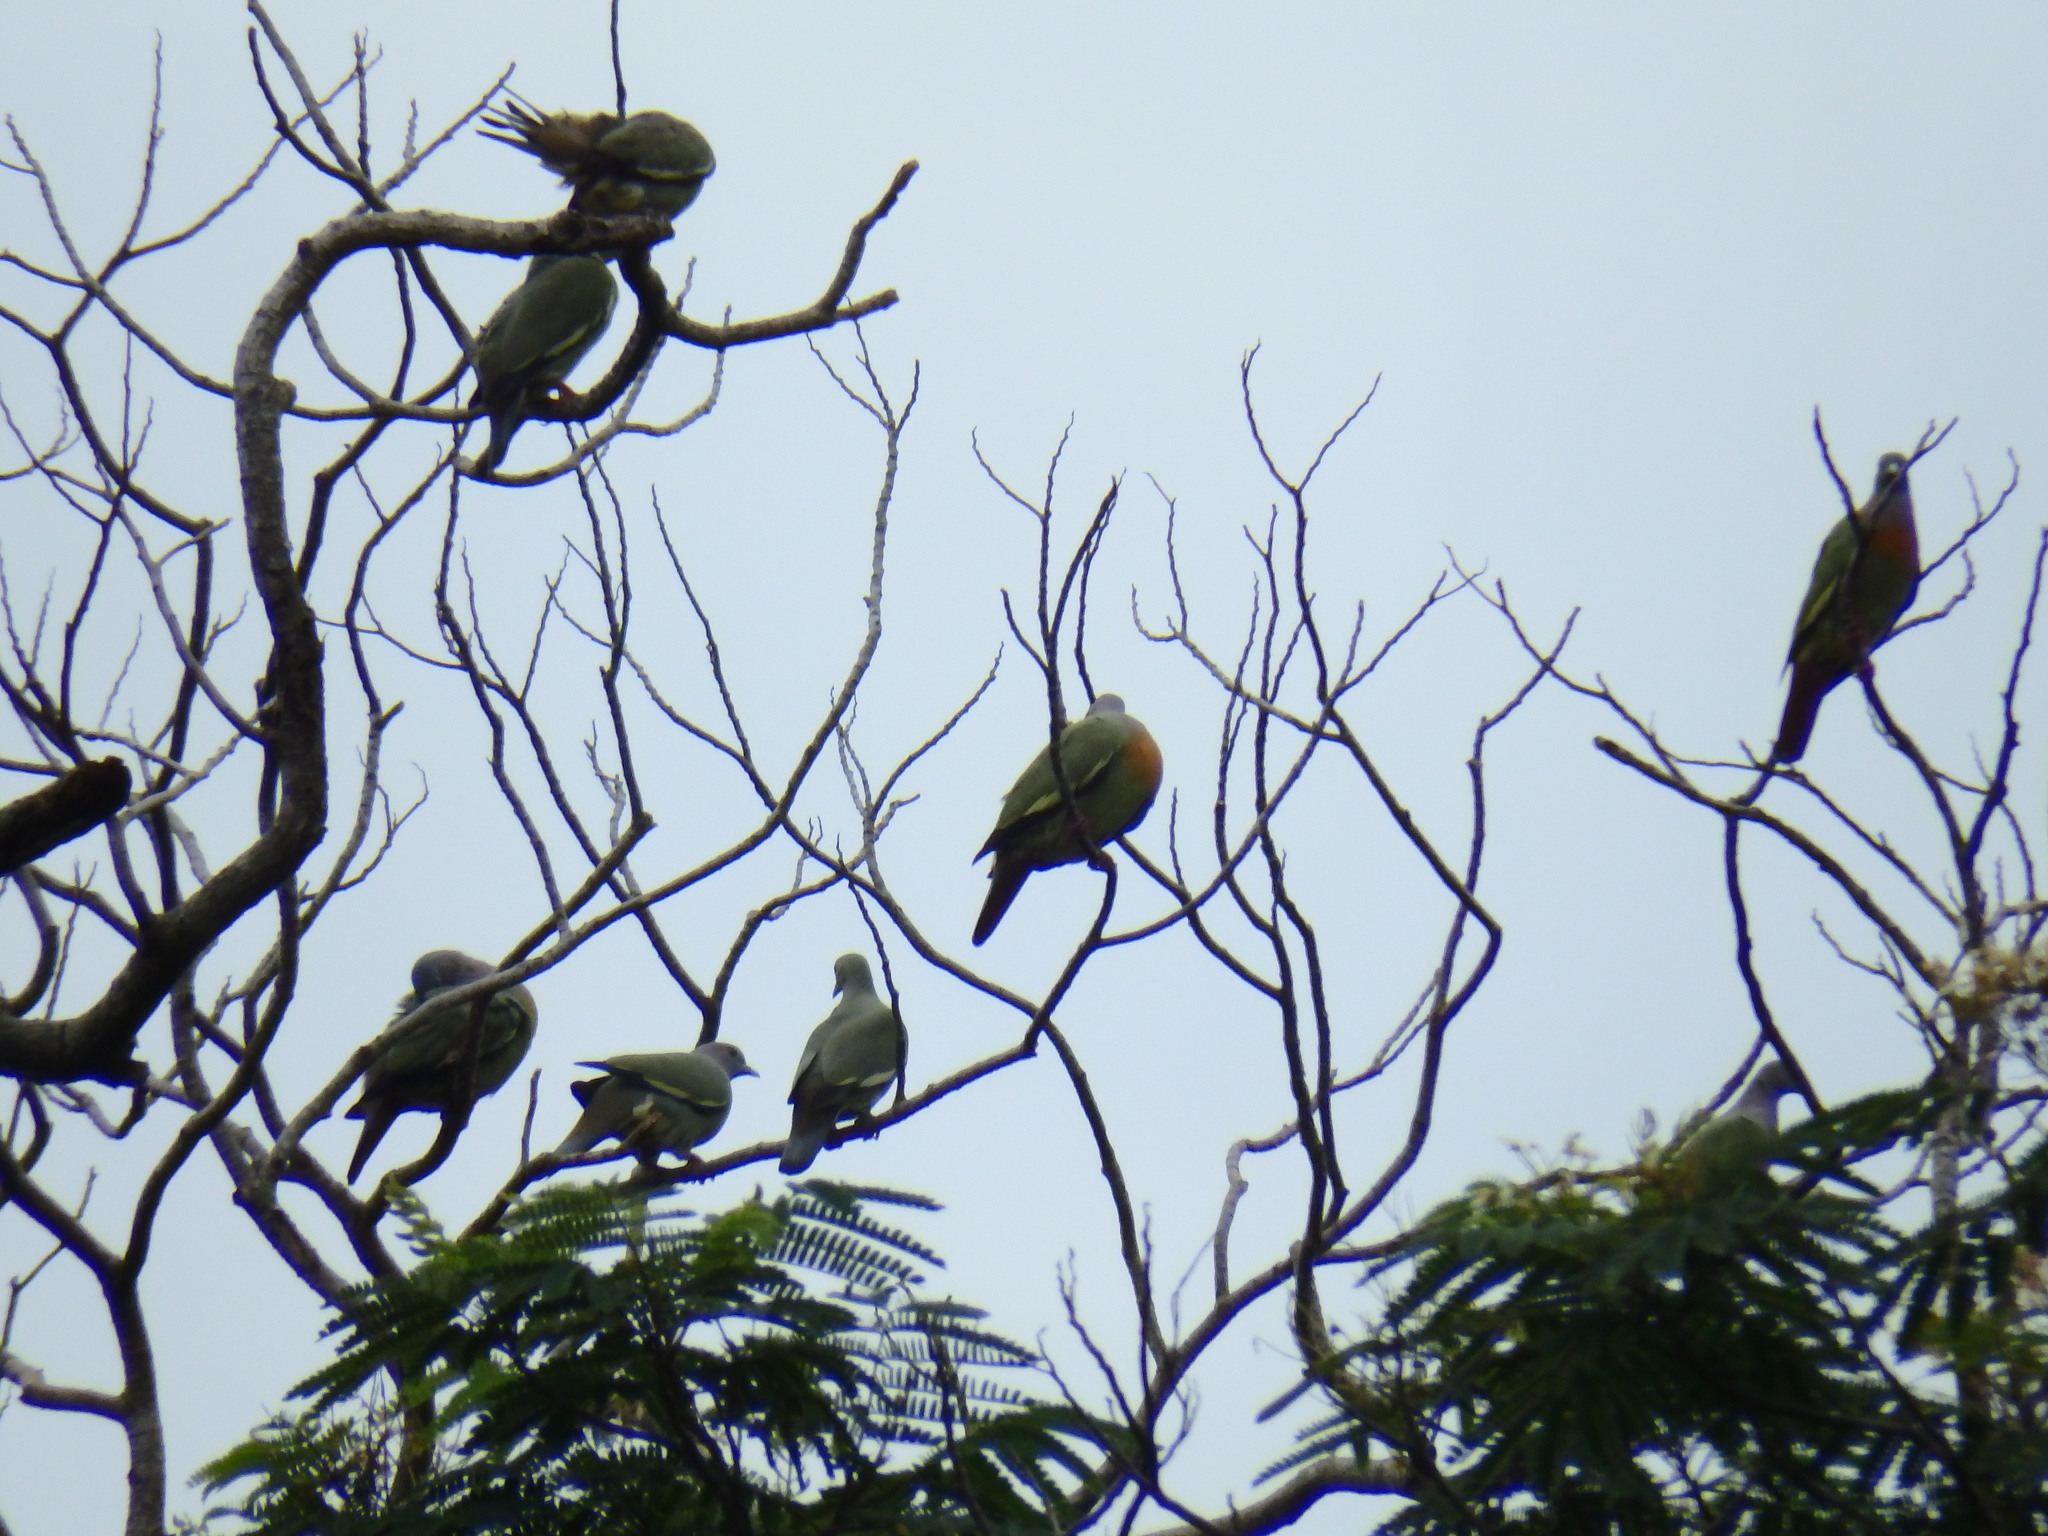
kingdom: Animalia
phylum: Chordata
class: Aves
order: Columbiformes
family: Columbidae
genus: Treron
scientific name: Treron vernans
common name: Pink-necked green pigeon
